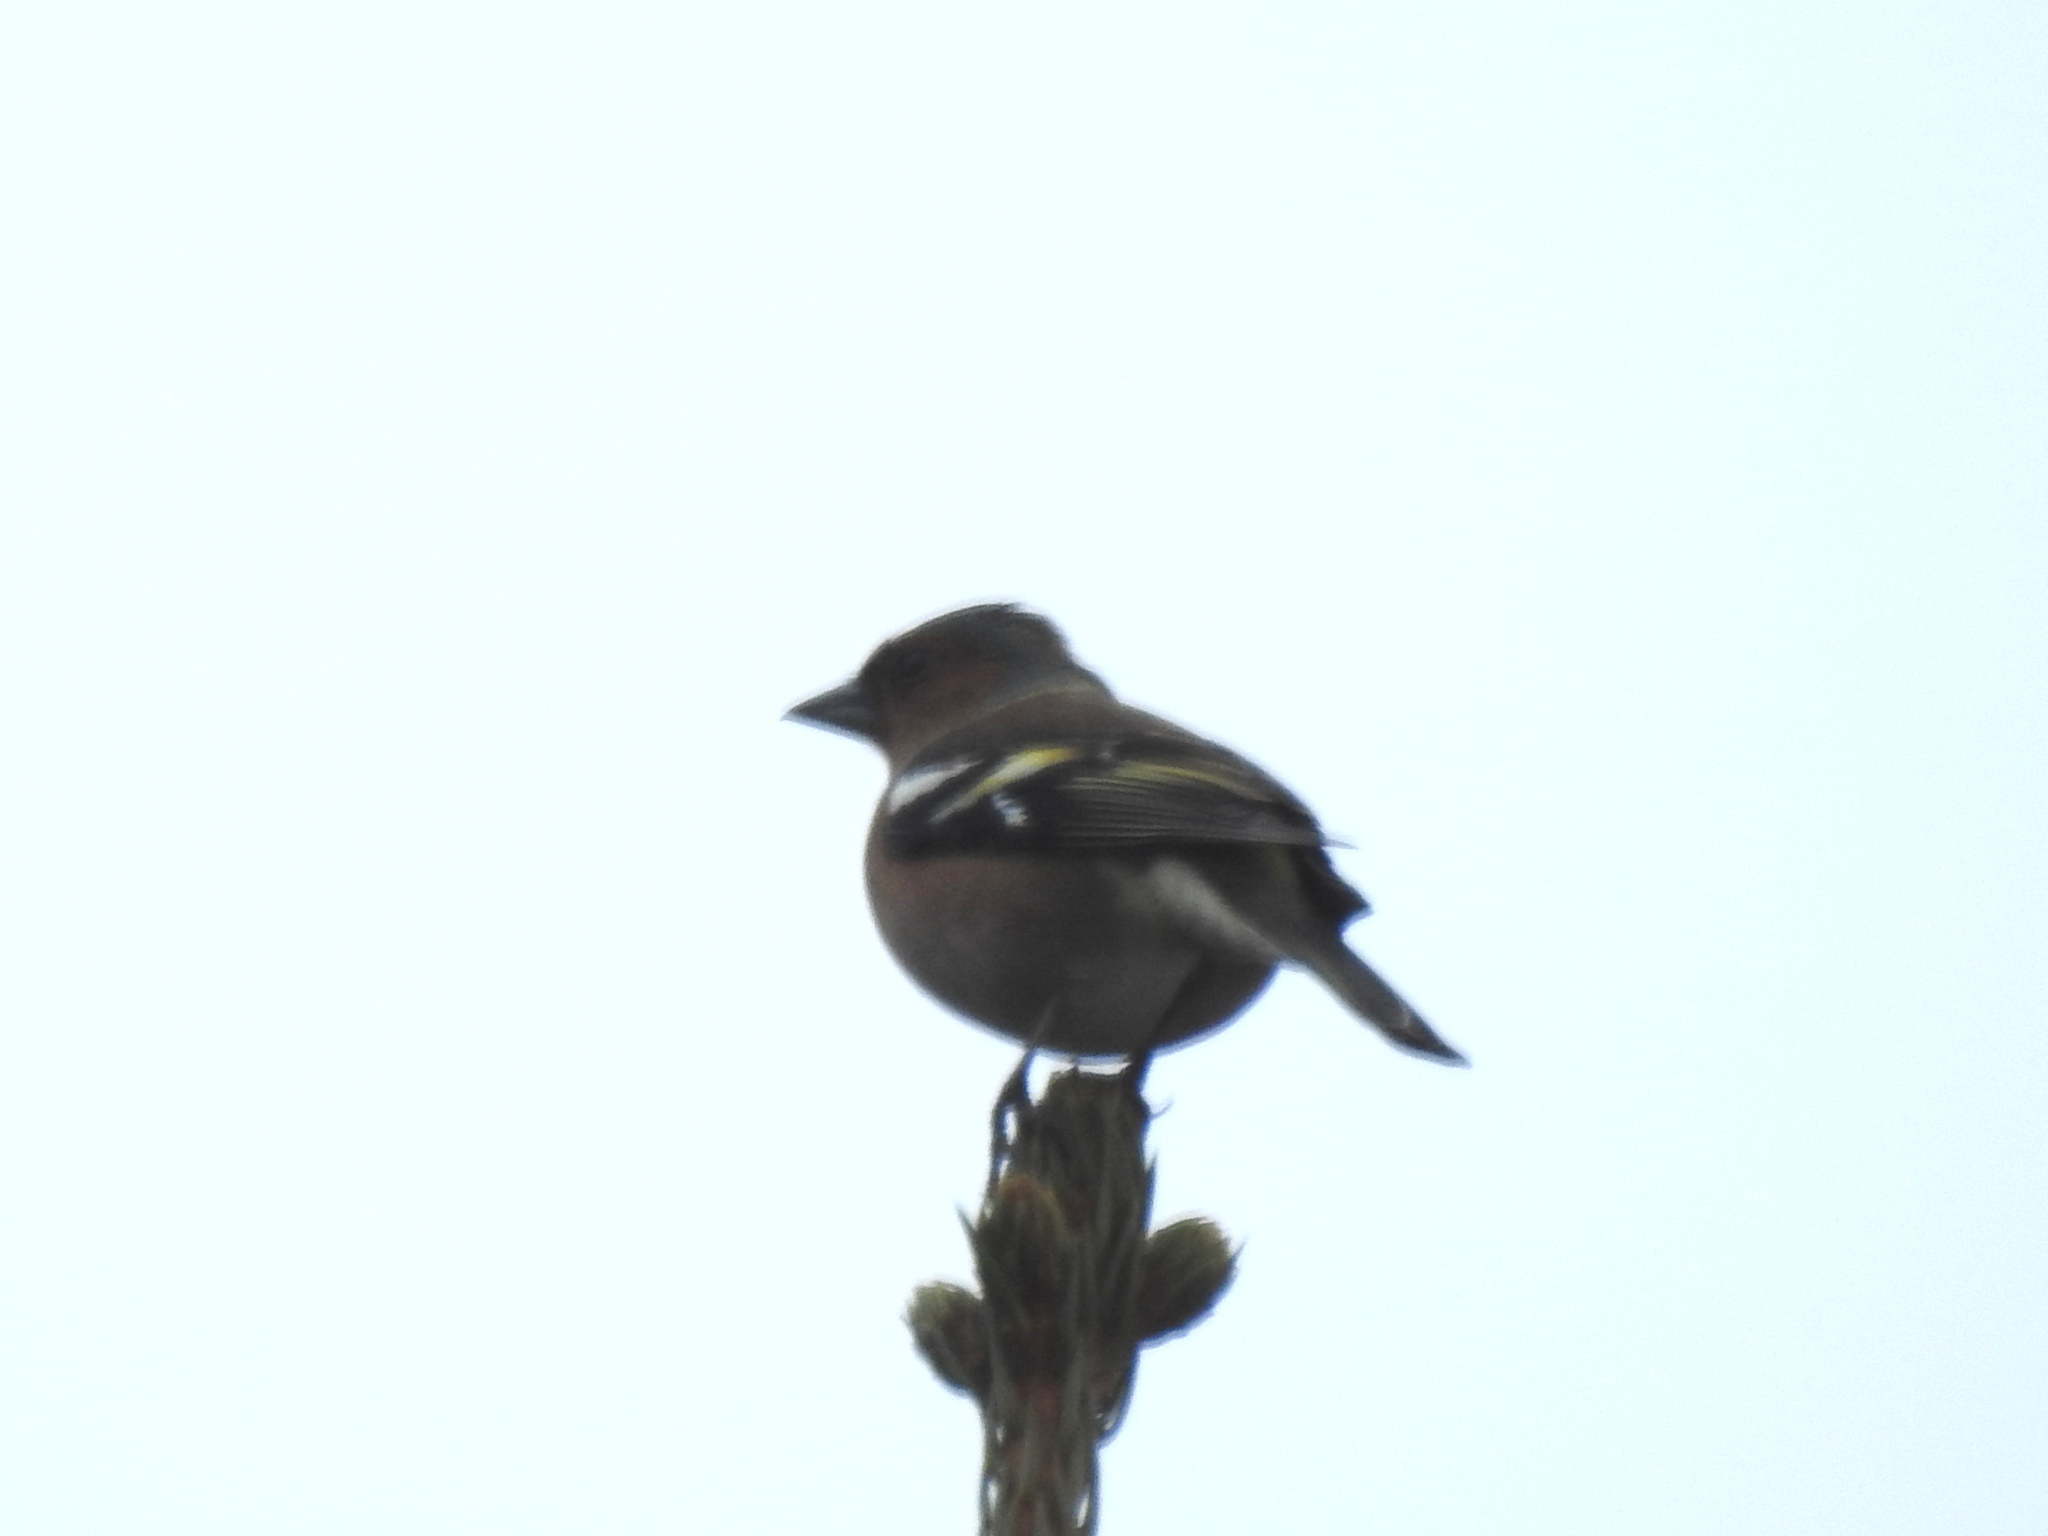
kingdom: Animalia
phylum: Chordata
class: Aves
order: Passeriformes
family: Fringillidae
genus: Fringilla
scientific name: Fringilla coelebs
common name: Common chaffinch
